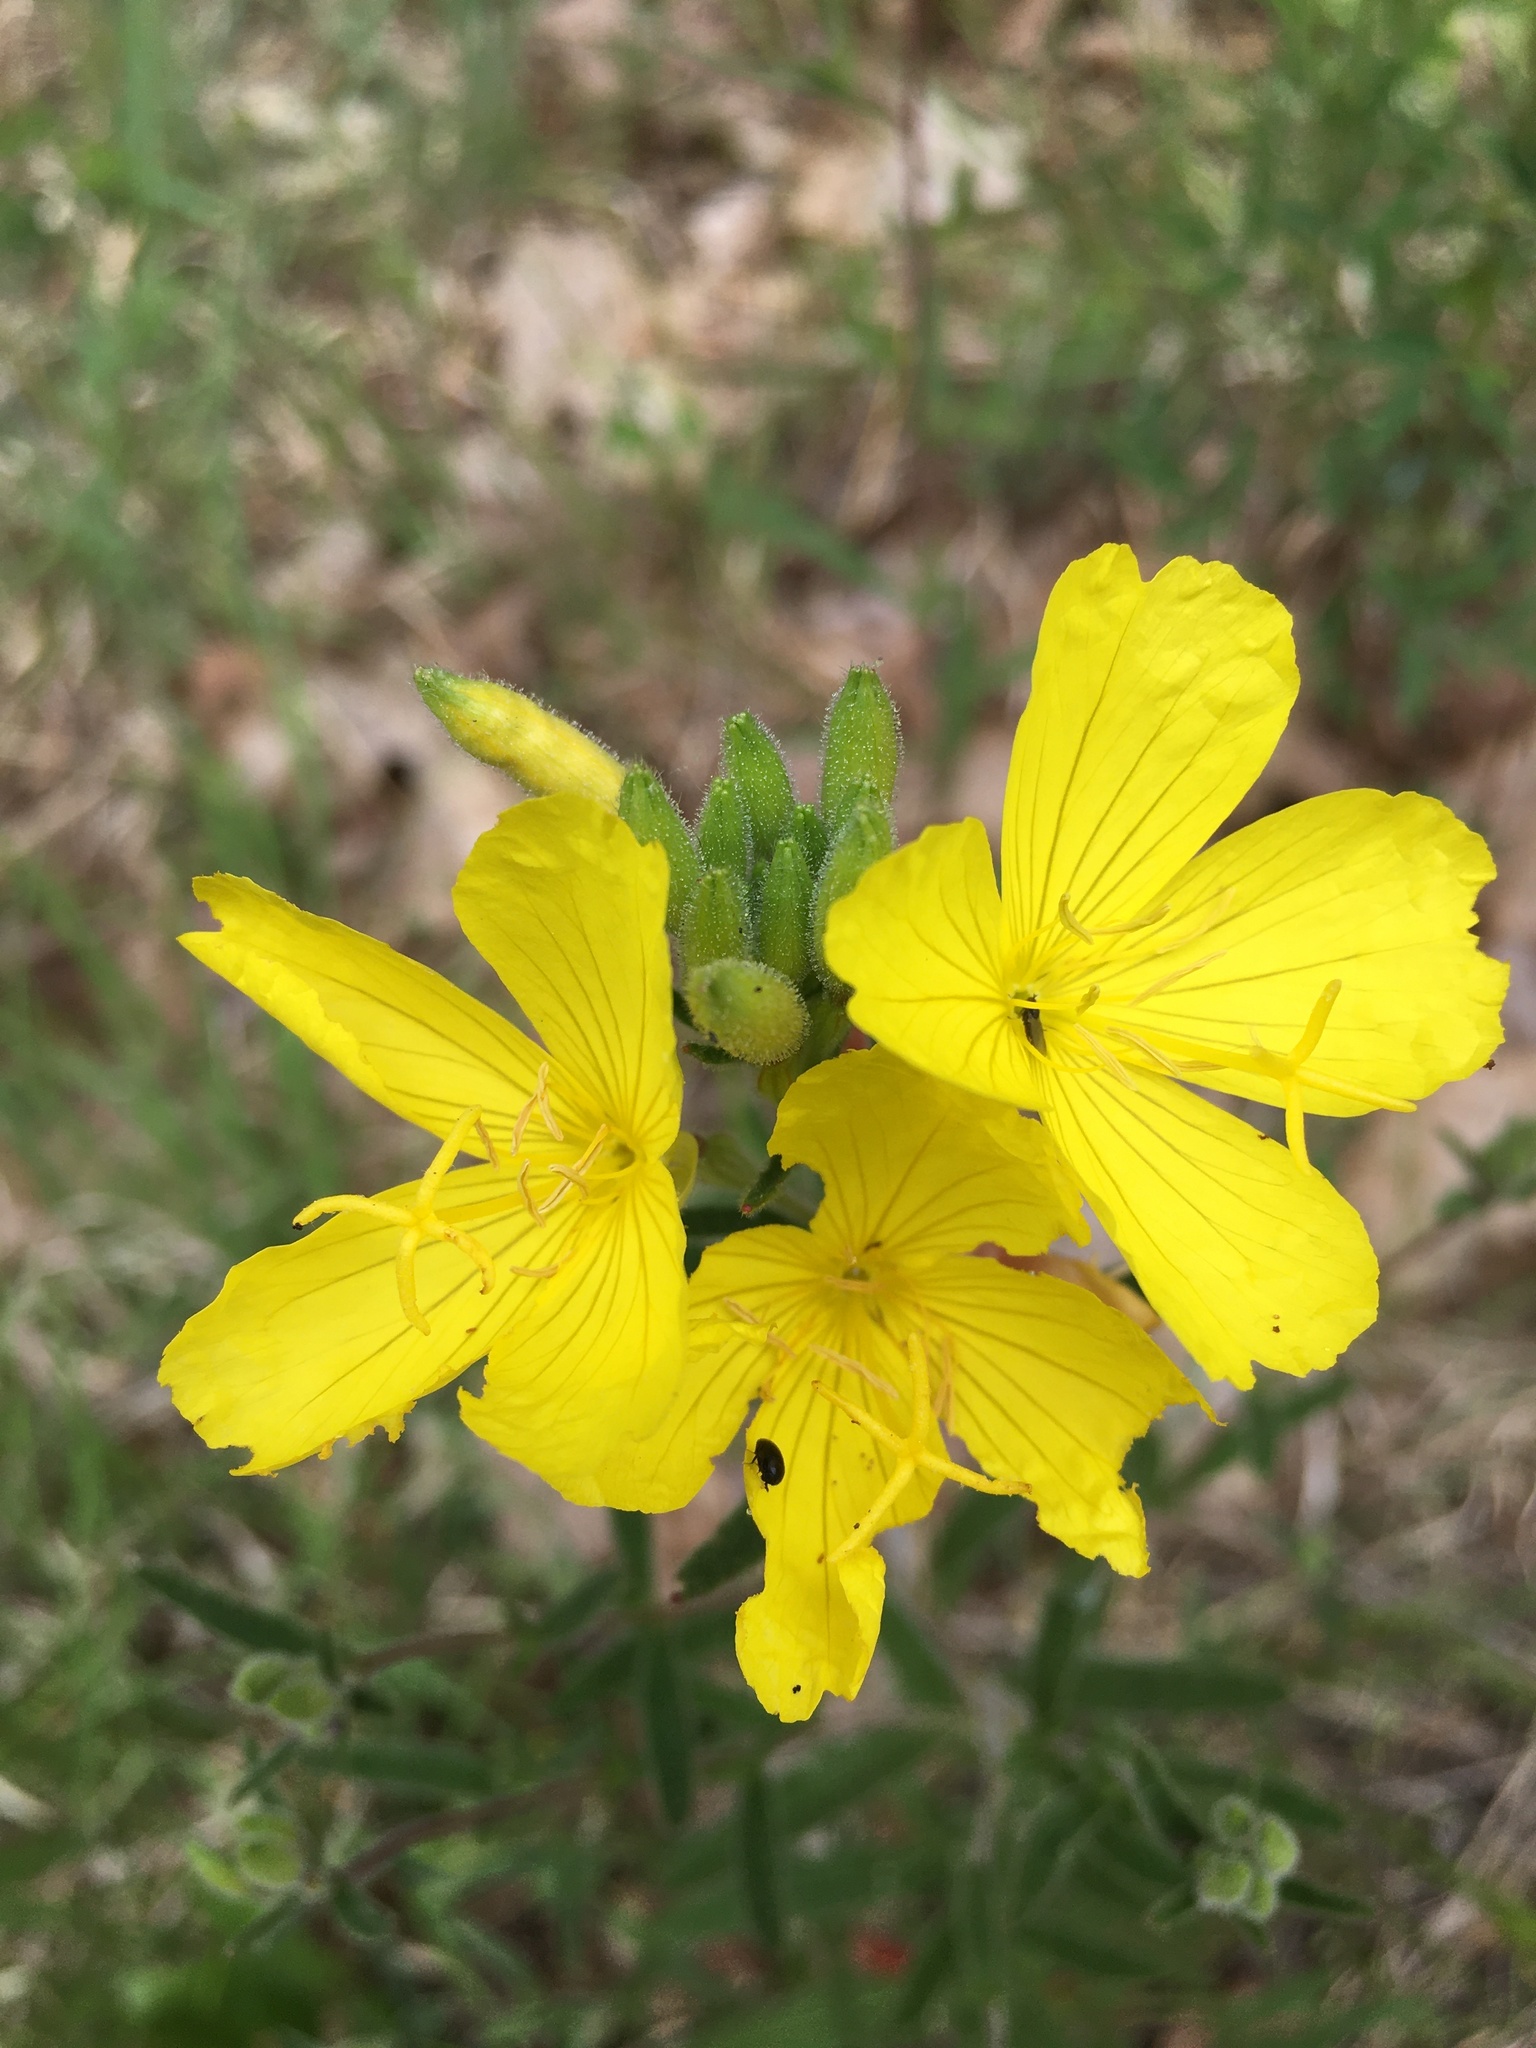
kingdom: Plantae
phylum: Tracheophyta
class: Magnoliopsida
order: Myrtales
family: Onagraceae
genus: Oenothera
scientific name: Oenothera fruticosa
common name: Southern sundrops
